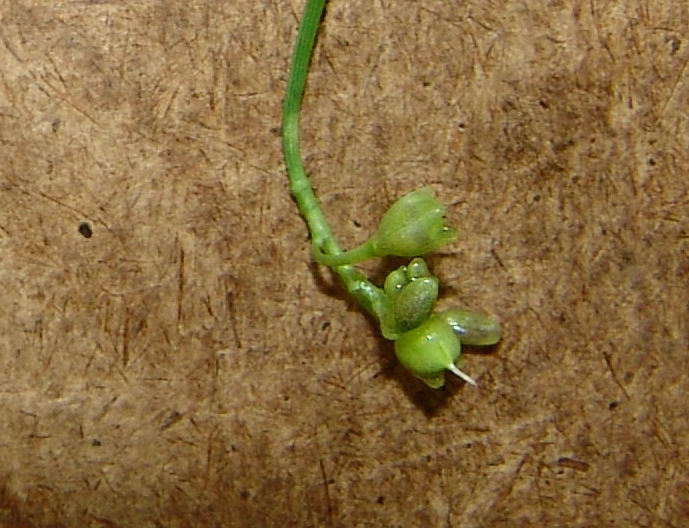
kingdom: Plantae
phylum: Tracheophyta
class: Liliopsida
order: Commelinales
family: Commelinaceae
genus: Murdannia
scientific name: Murdannia nudiflora
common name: Nakedstem dewflower
